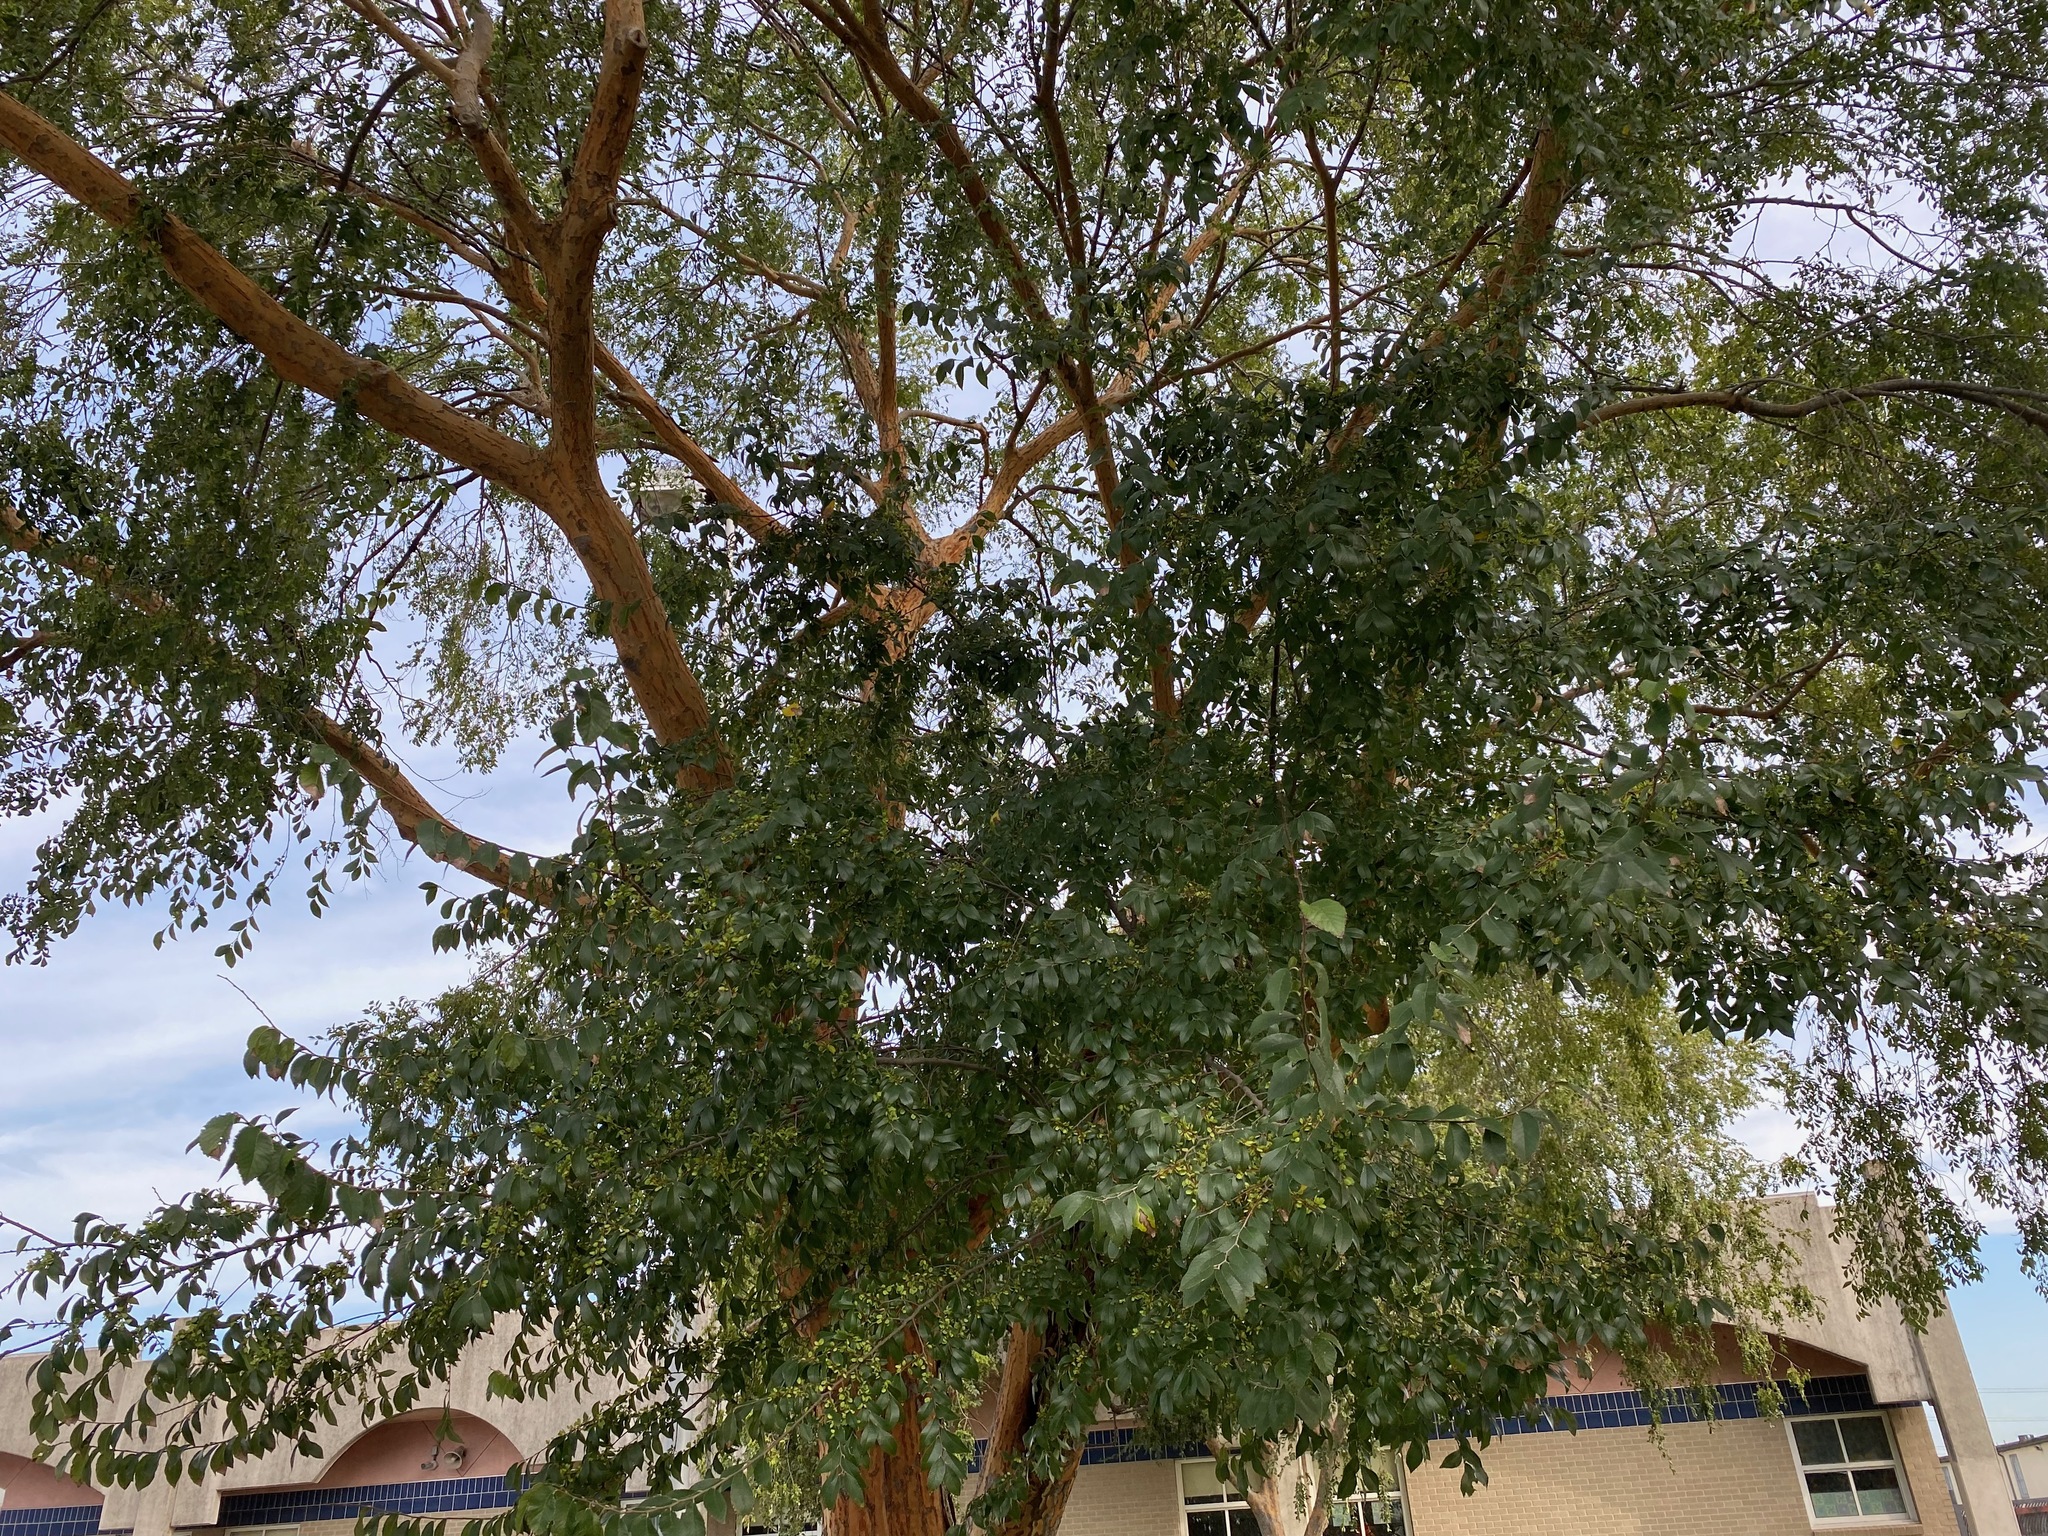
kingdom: Plantae
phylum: Tracheophyta
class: Magnoliopsida
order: Rosales
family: Ulmaceae
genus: Ulmus
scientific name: Ulmus parvifolia
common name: Chinese elm
